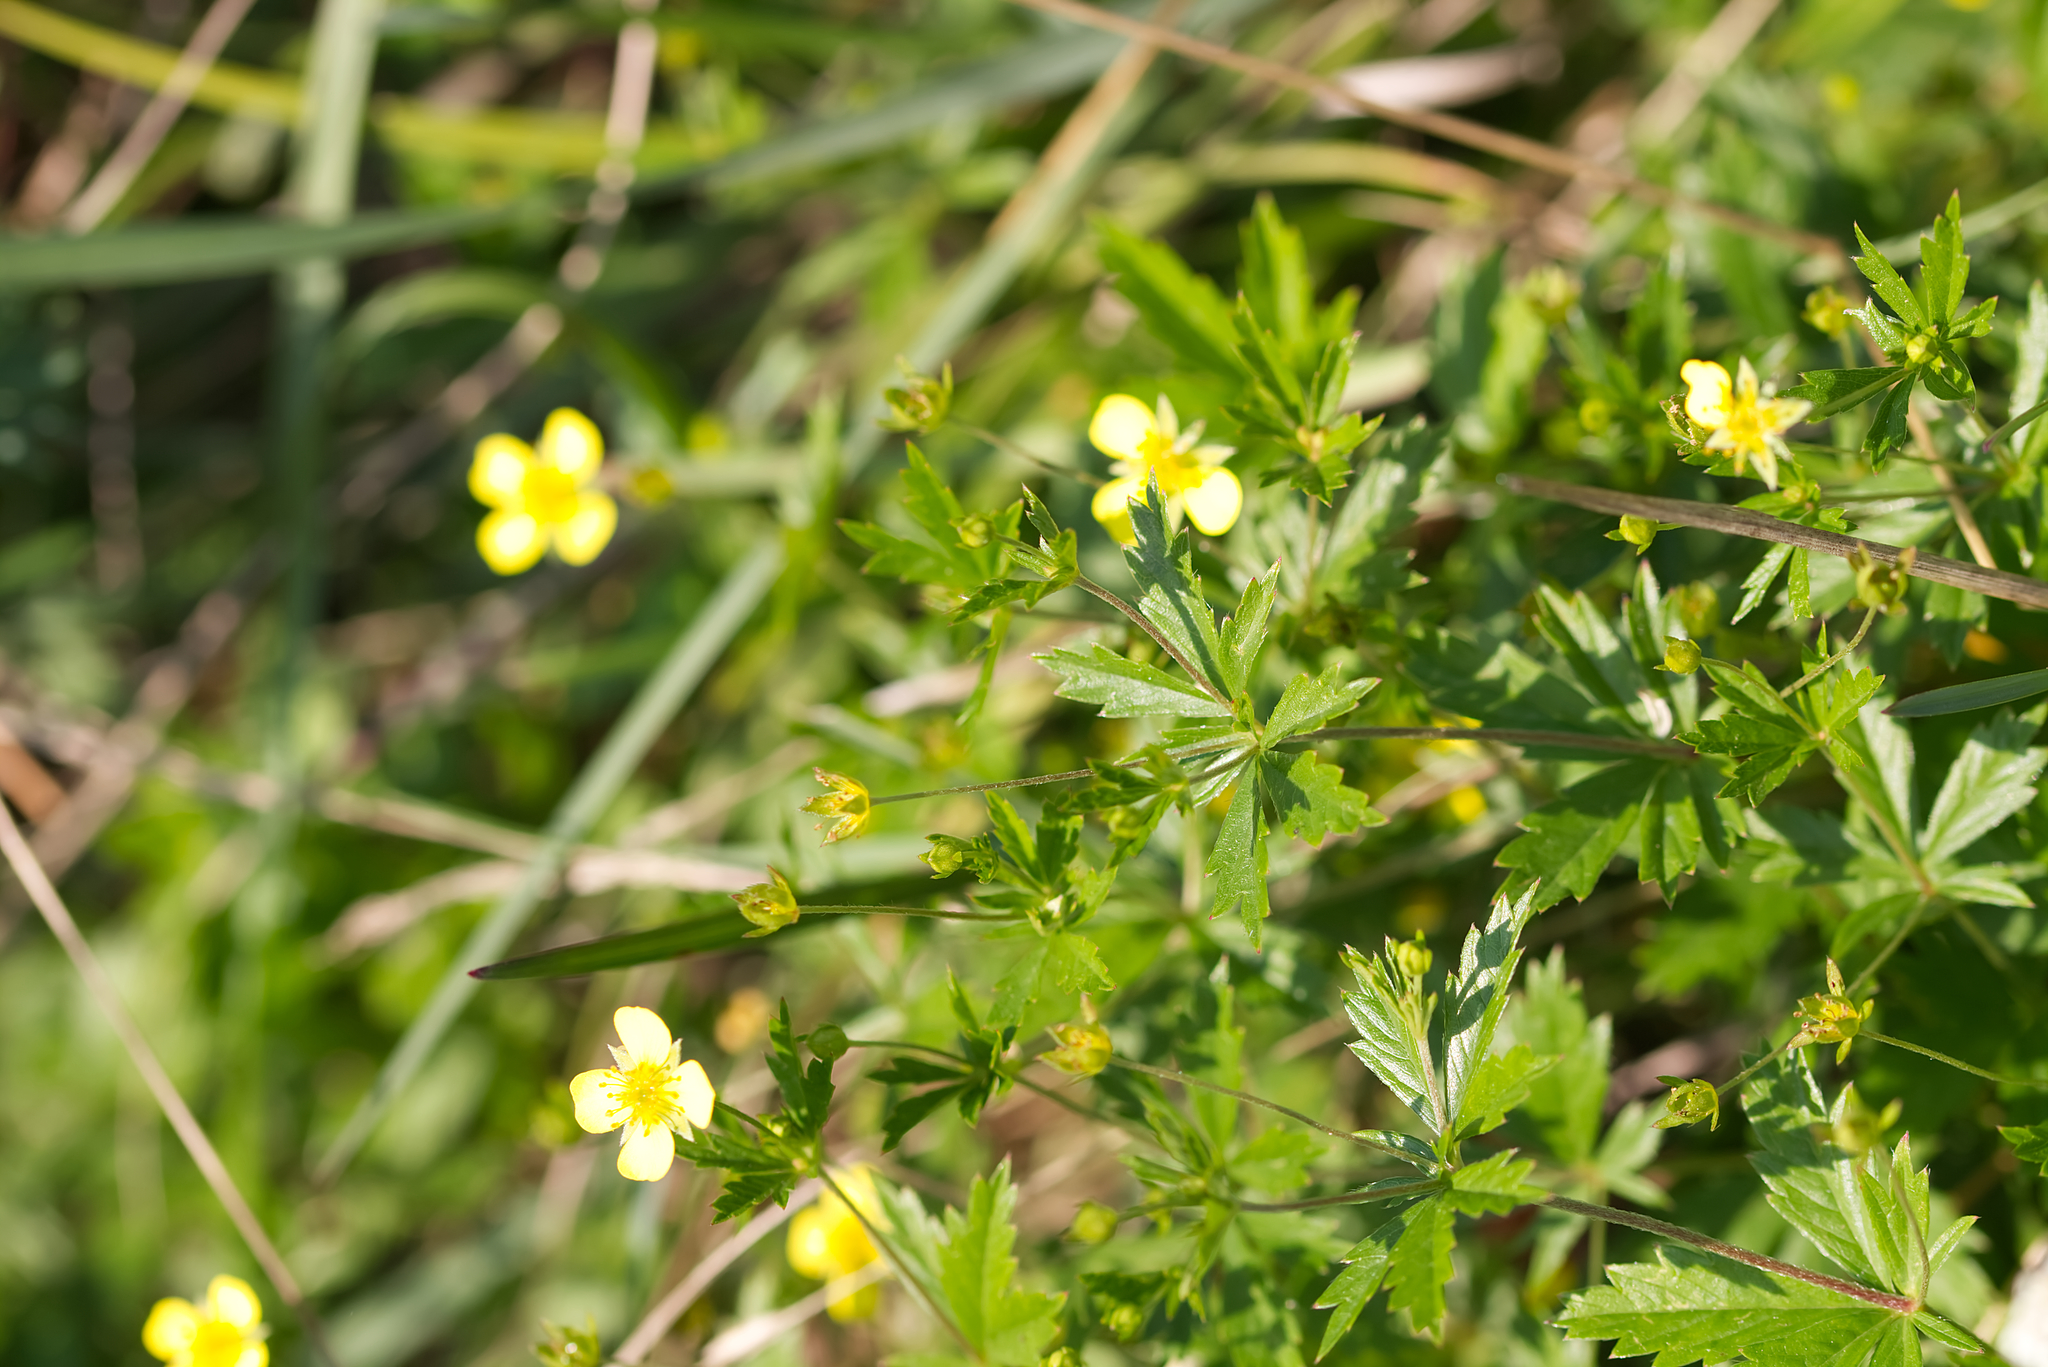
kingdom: Plantae
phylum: Tracheophyta
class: Magnoliopsida
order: Rosales
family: Rosaceae
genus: Potentilla
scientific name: Potentilla erecta
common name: Tormentil
